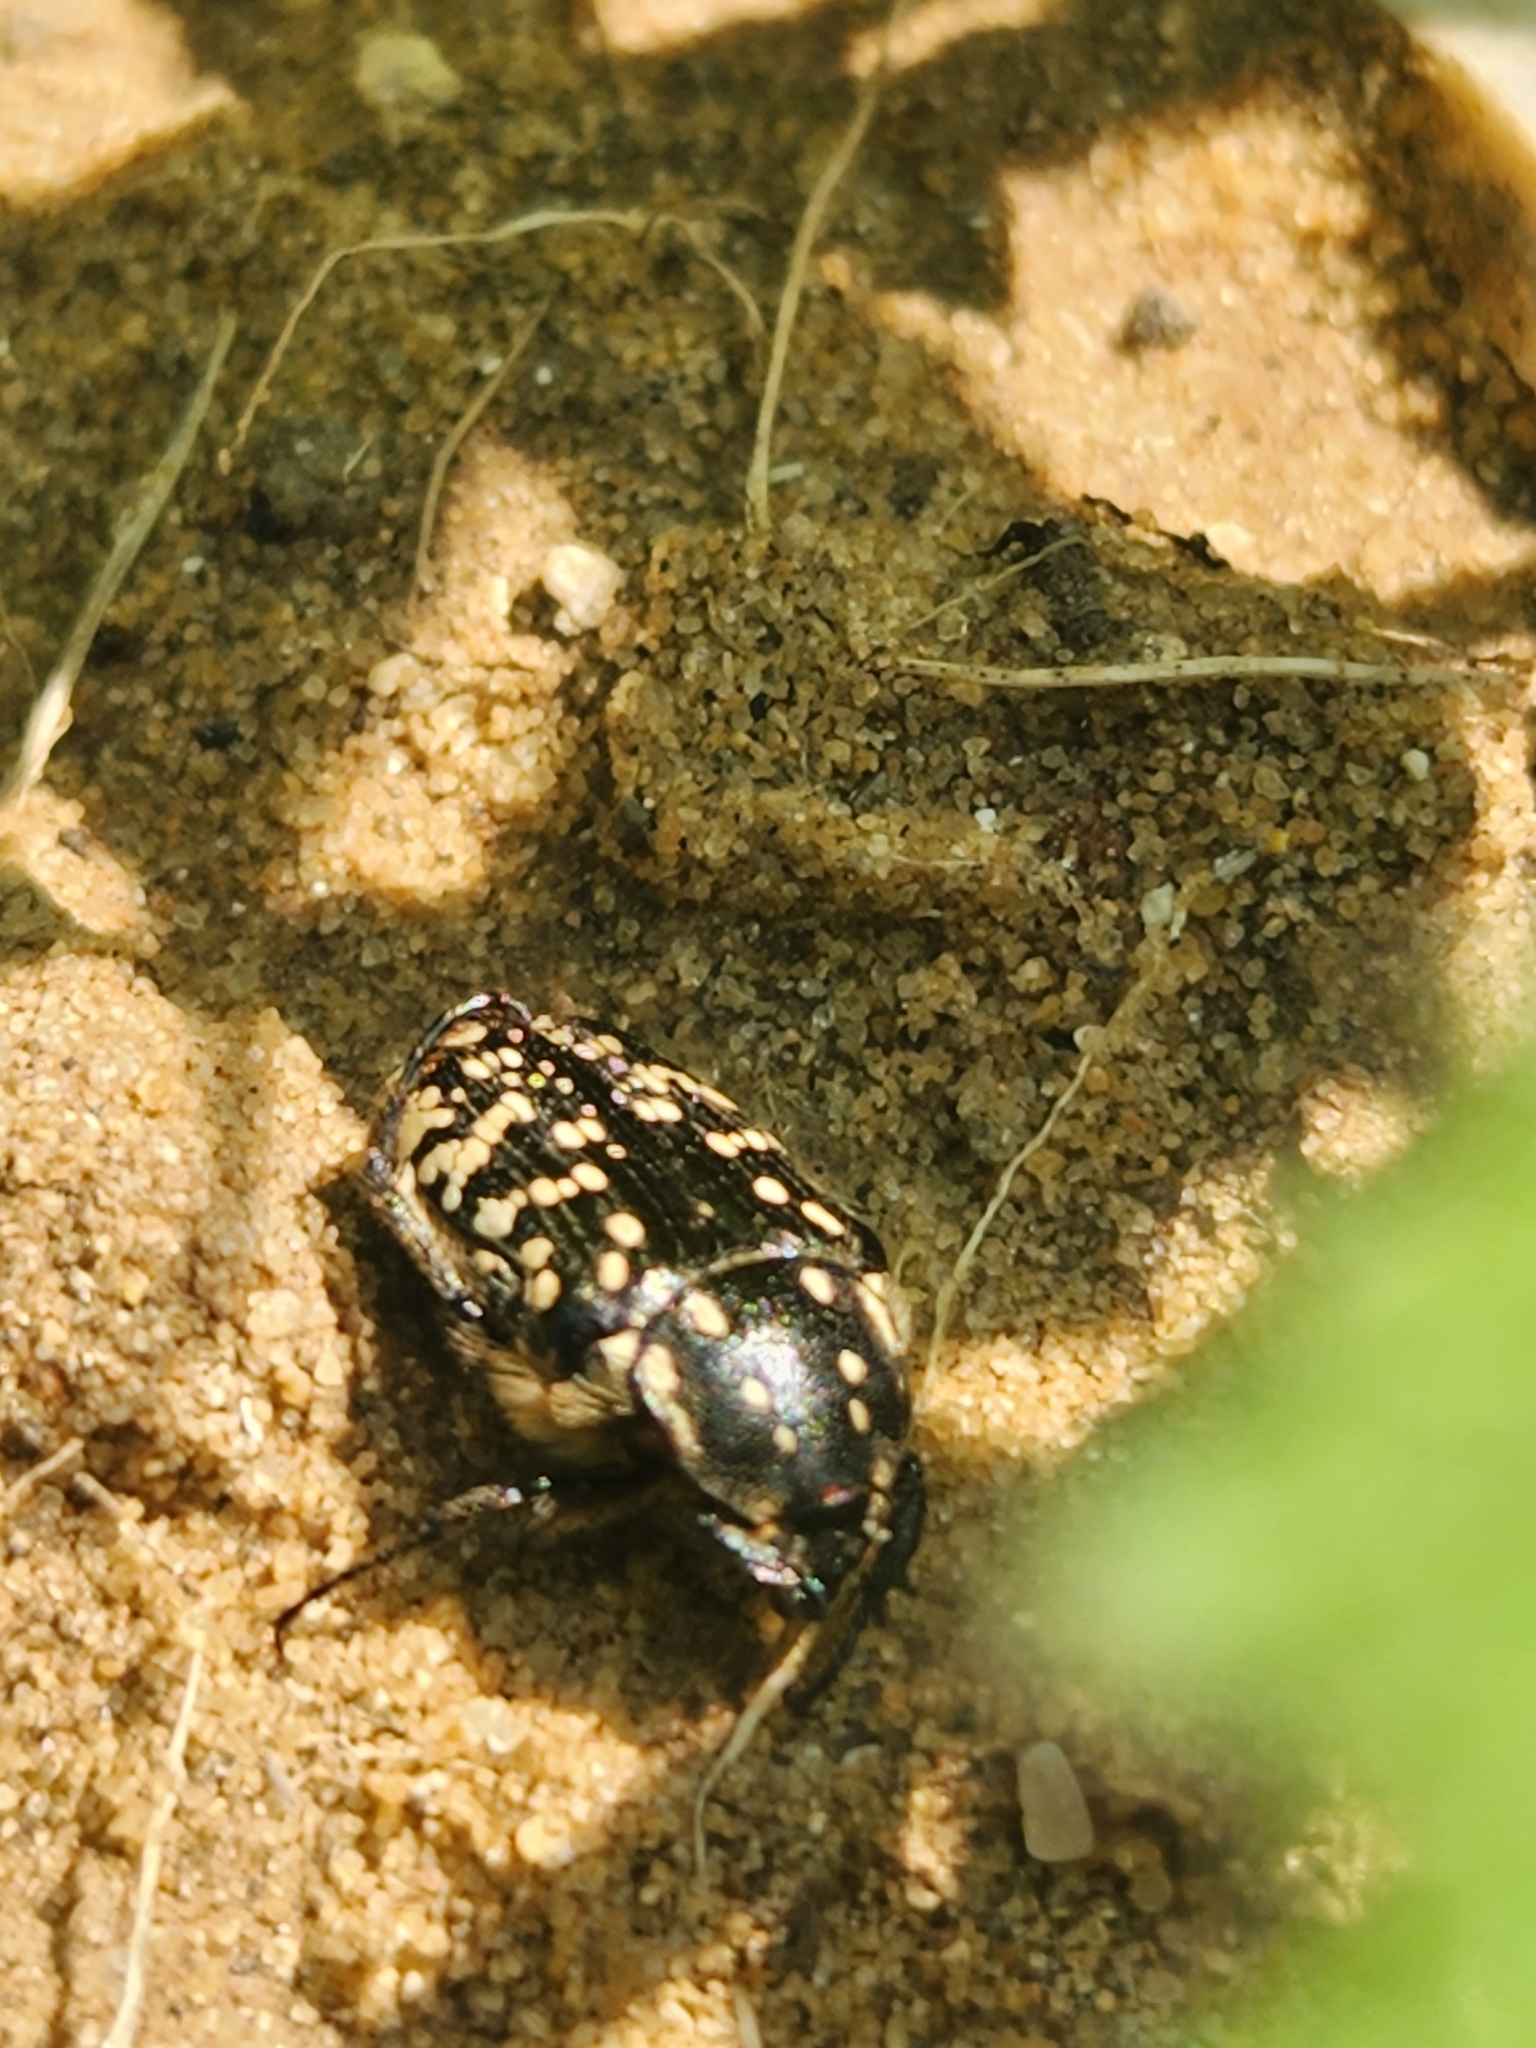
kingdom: Animalia
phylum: Arthropoda
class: Insecta
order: Coleoptera
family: Scarabaeidae
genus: Oxythyrea
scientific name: Oxythyrea noemi
